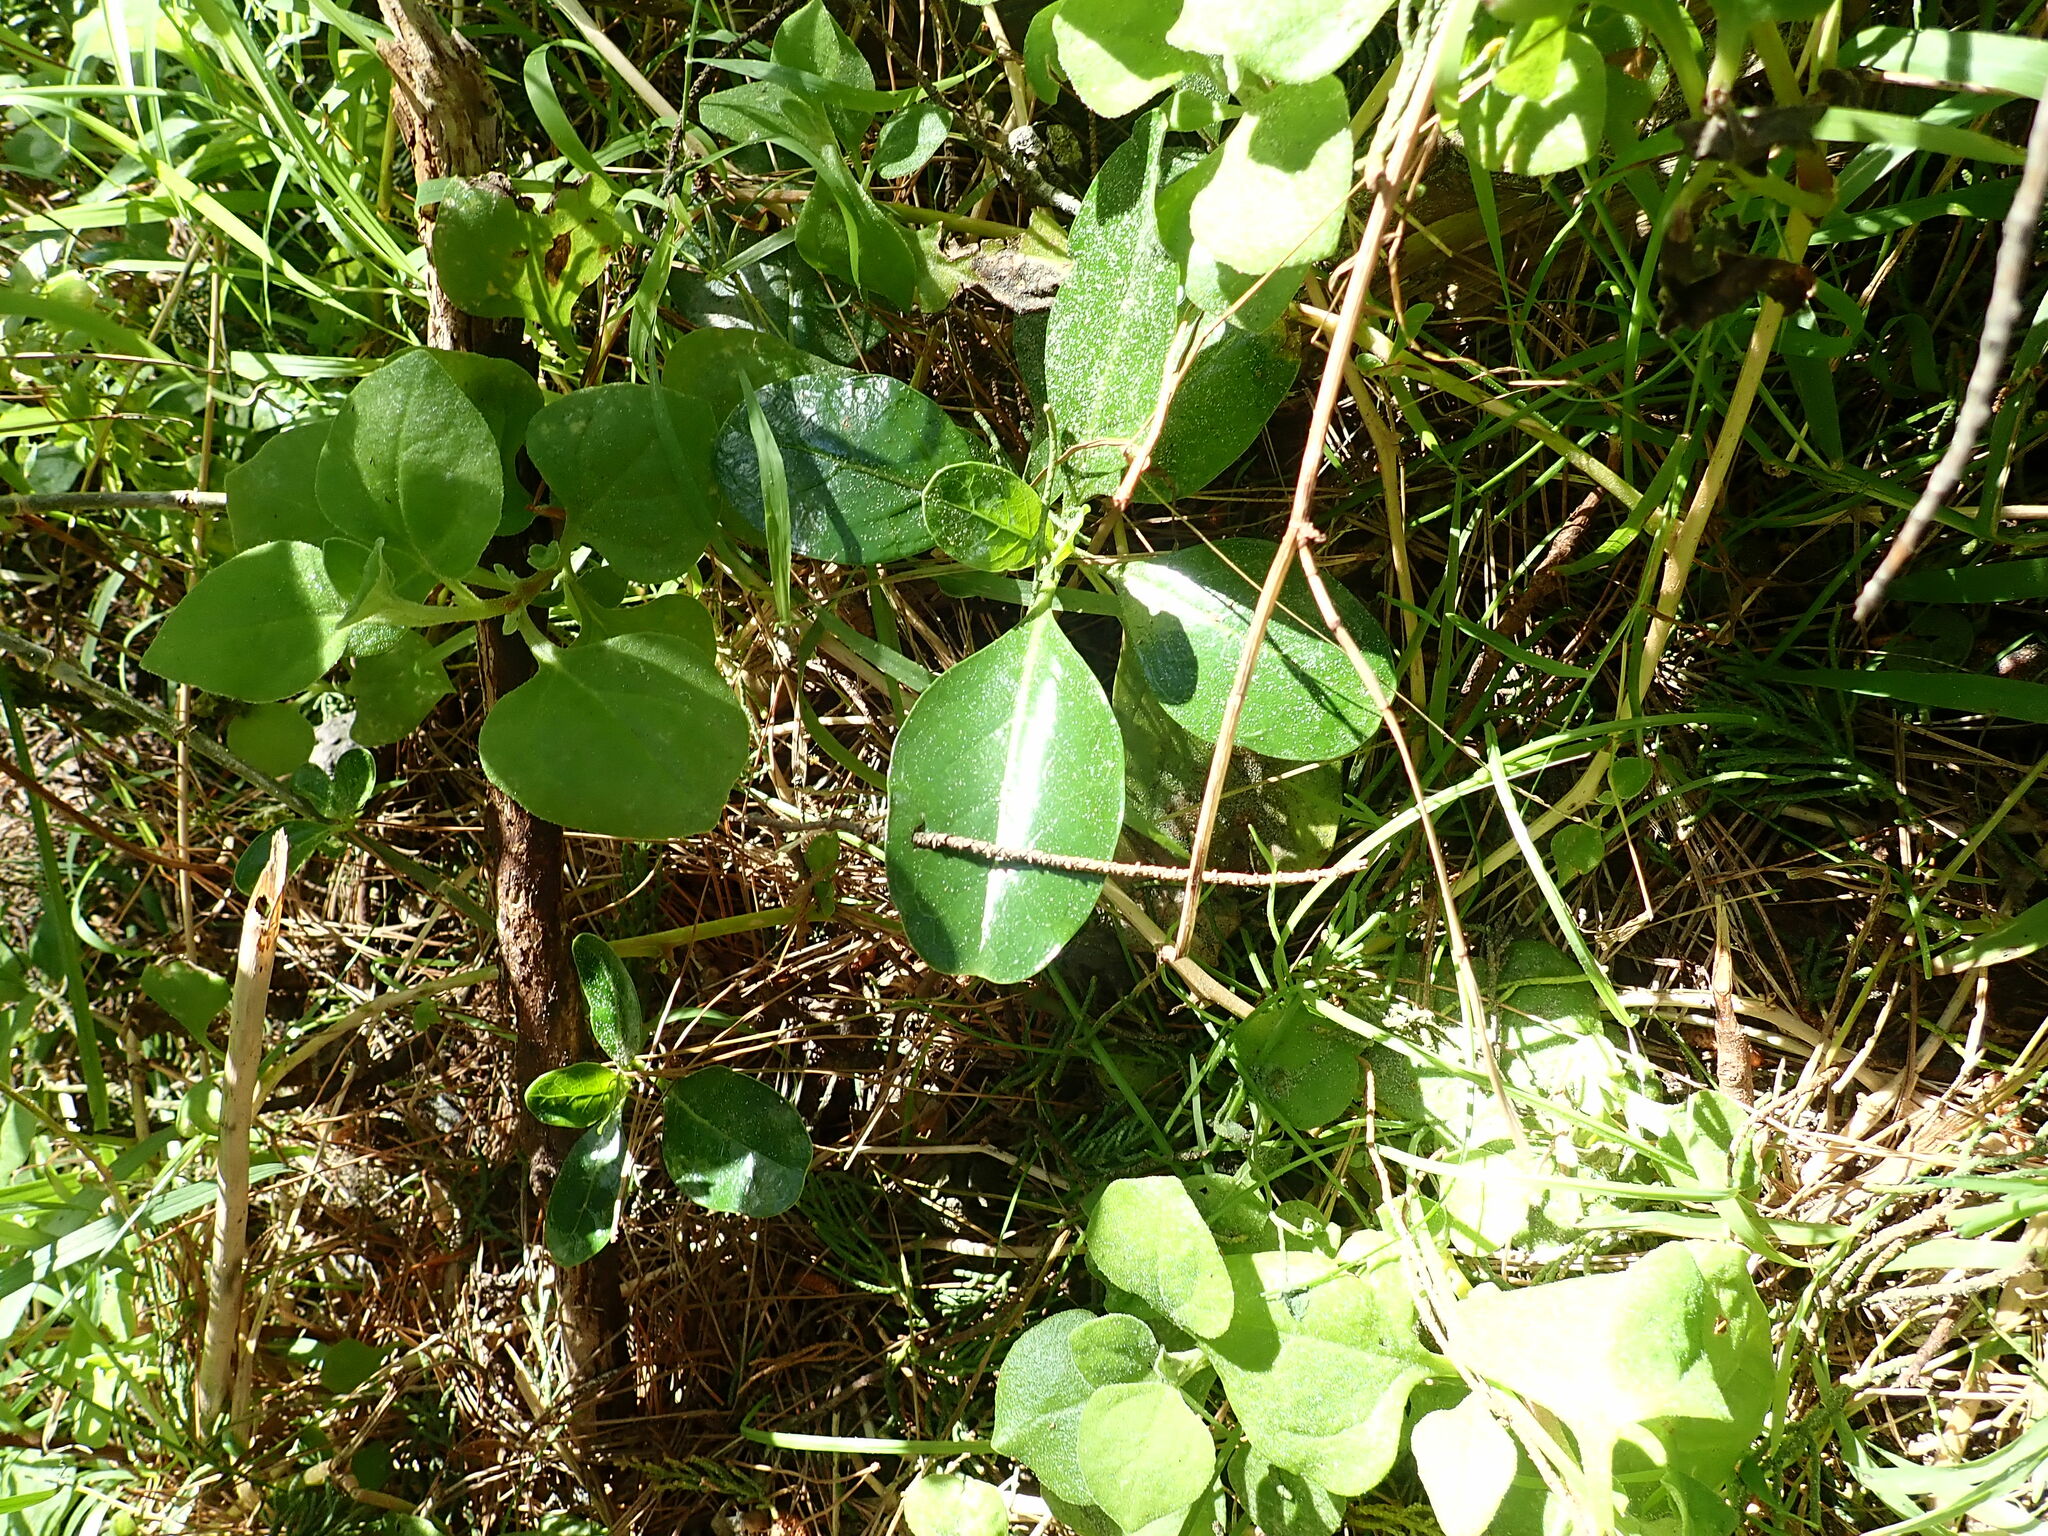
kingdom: Plantae
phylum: Tracheophyta
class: Magnoliopsida
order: Gentianales
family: Rubiaceae
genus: Coprosma
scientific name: Coprosma repens
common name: Tree bedstraw
